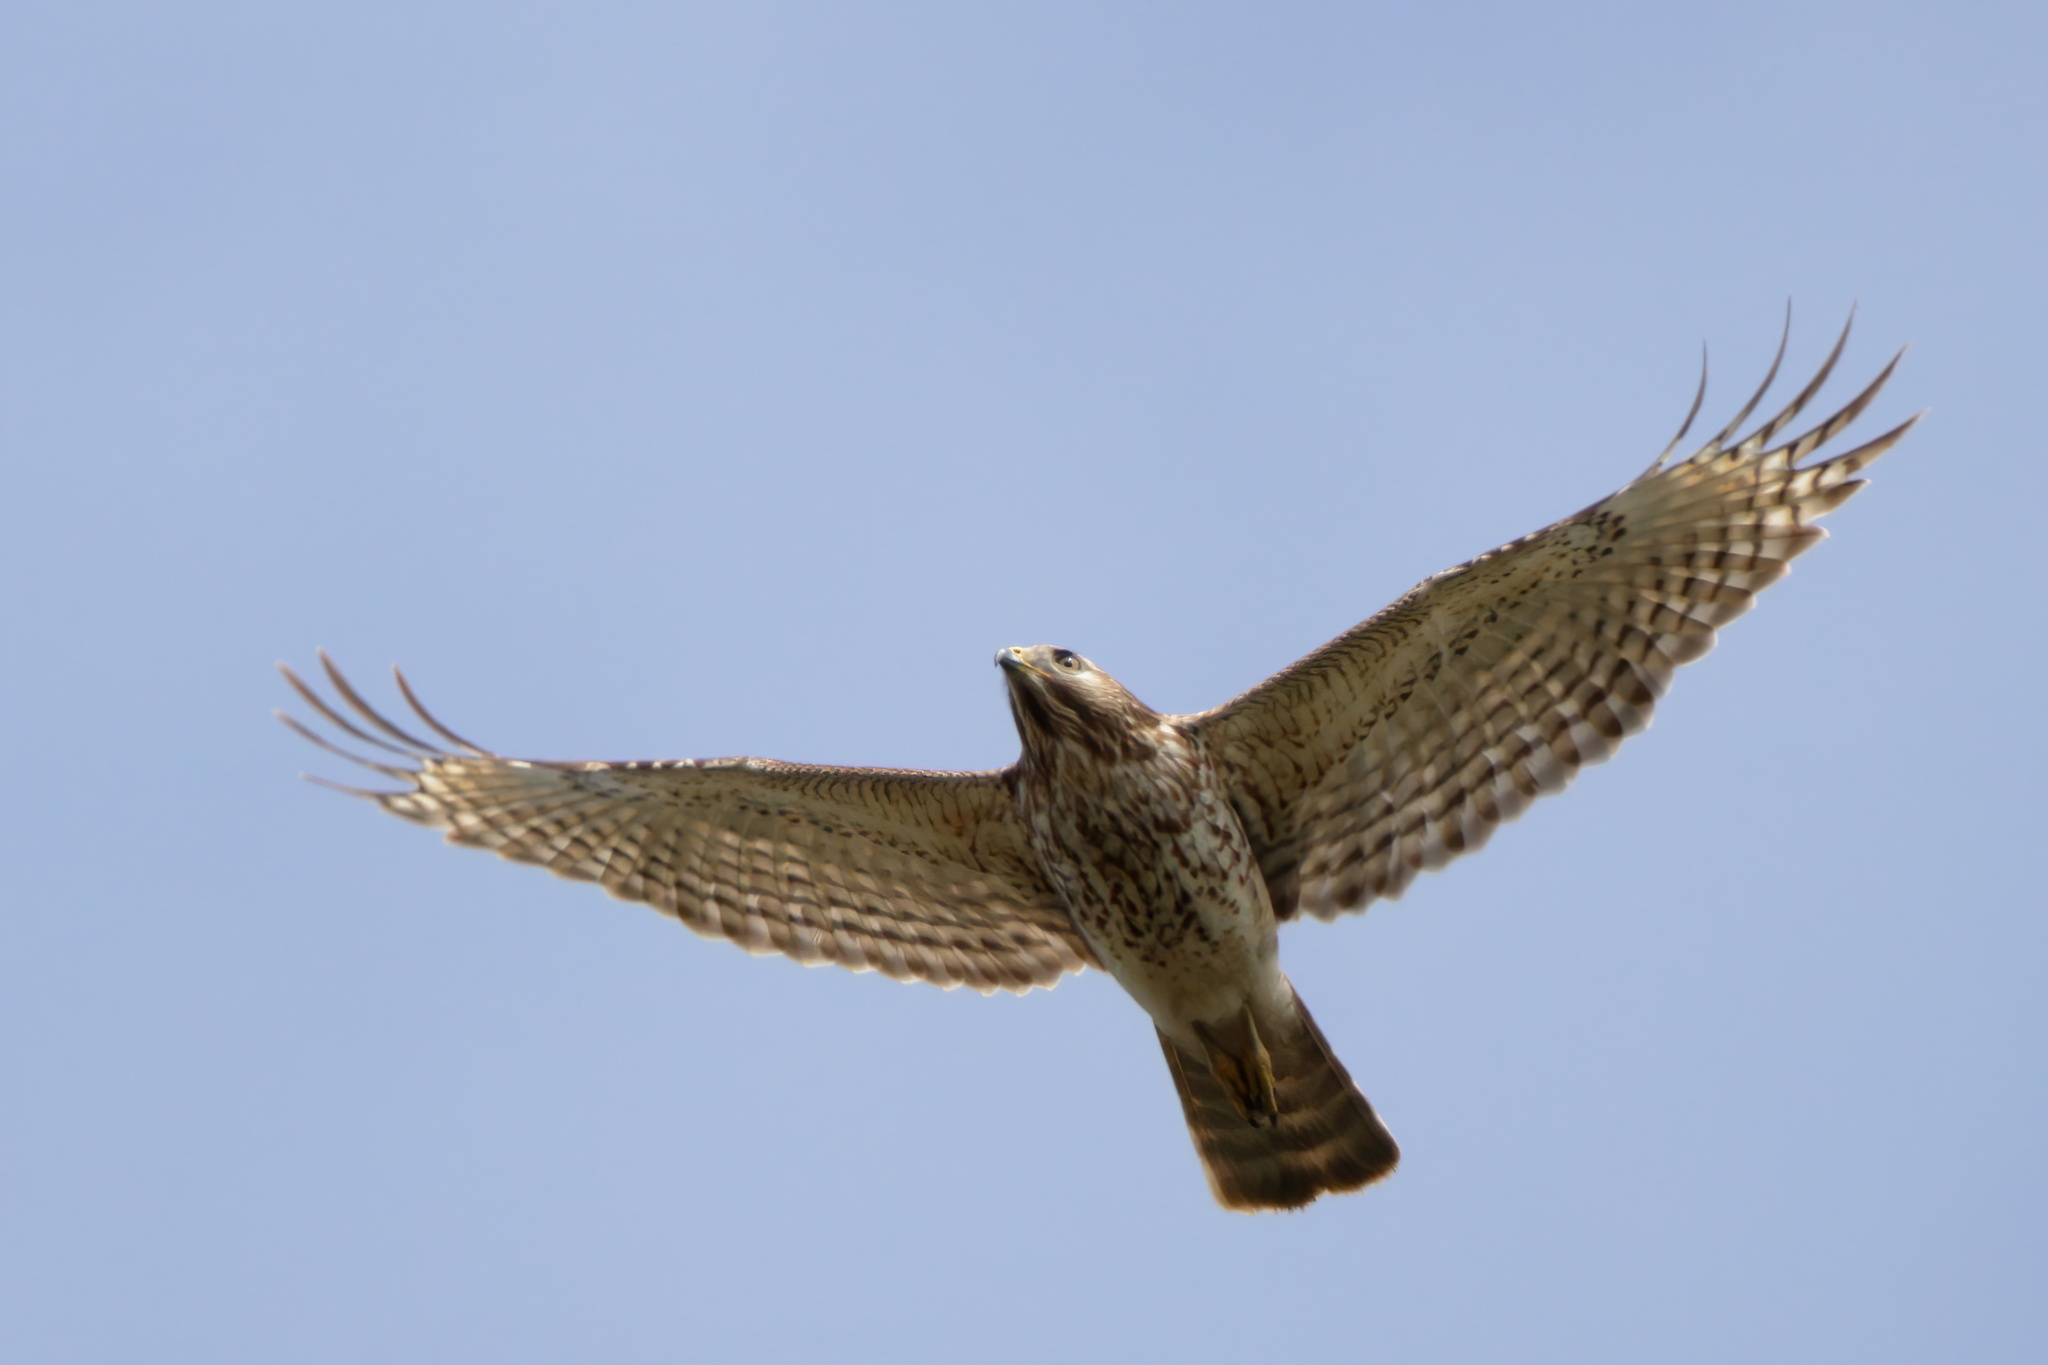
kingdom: Animalia
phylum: Chordata
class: Aves
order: Accipitriformes
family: Accipitridae
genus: Buteo
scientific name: Buteo lineatus
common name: Red-shouldered hawk
